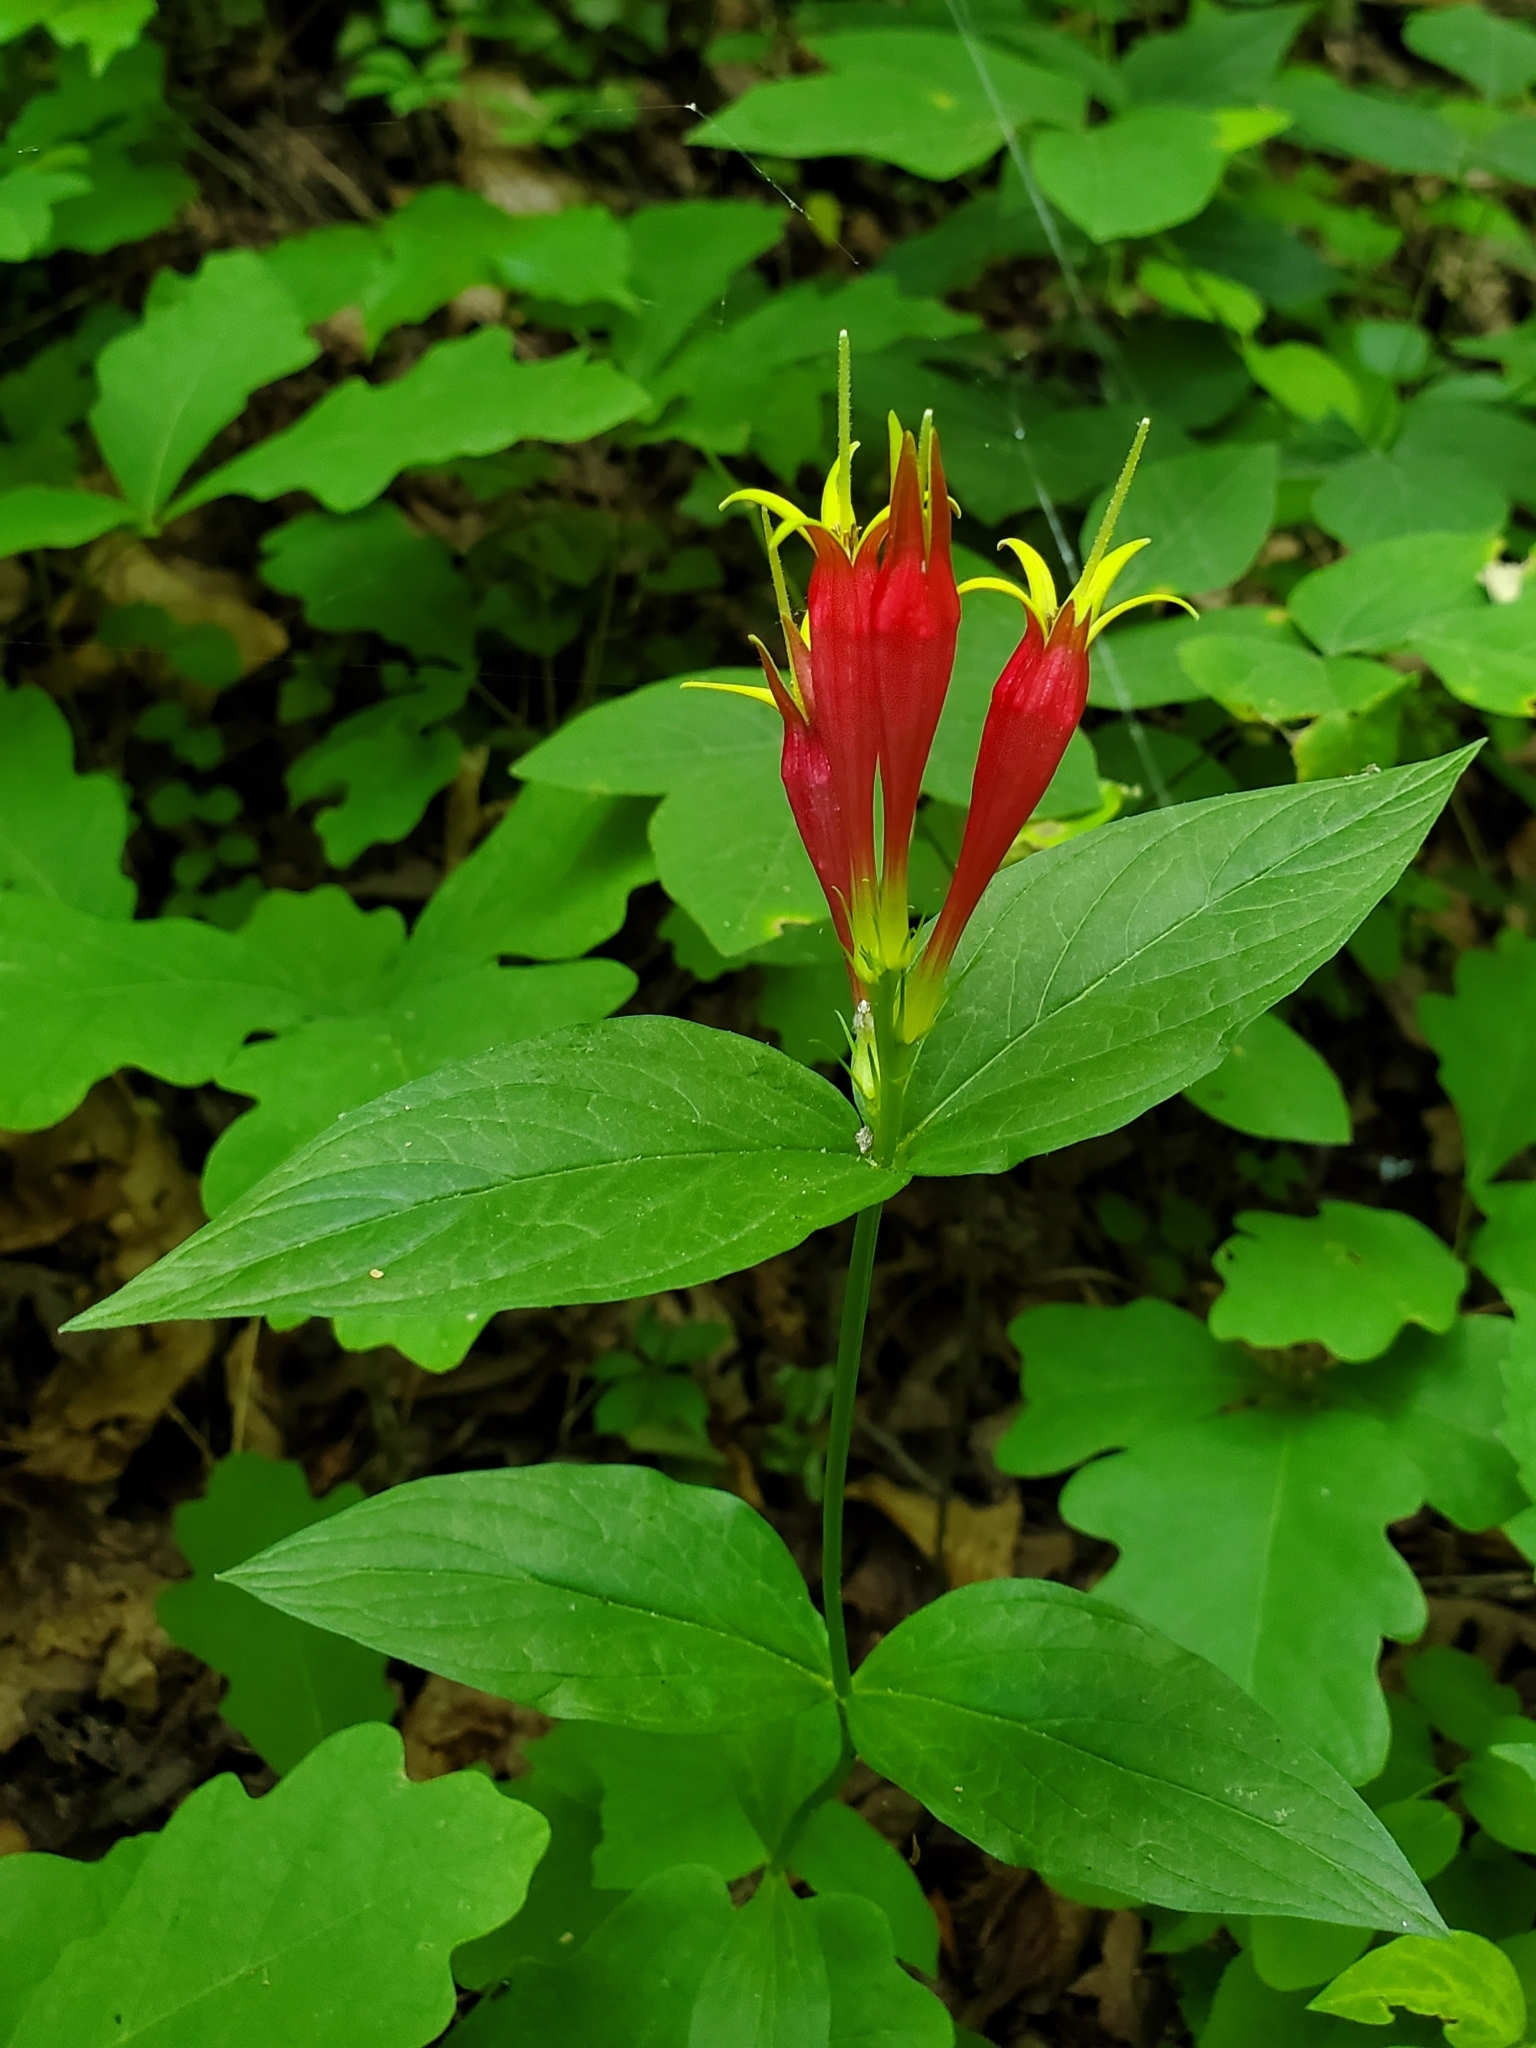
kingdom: Plantae
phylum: Tracheophyta
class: Magnoliopsida
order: Gentianales
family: Loganiaceae
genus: Spigelia
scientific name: Spigelia marilandica
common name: Indian-pink
